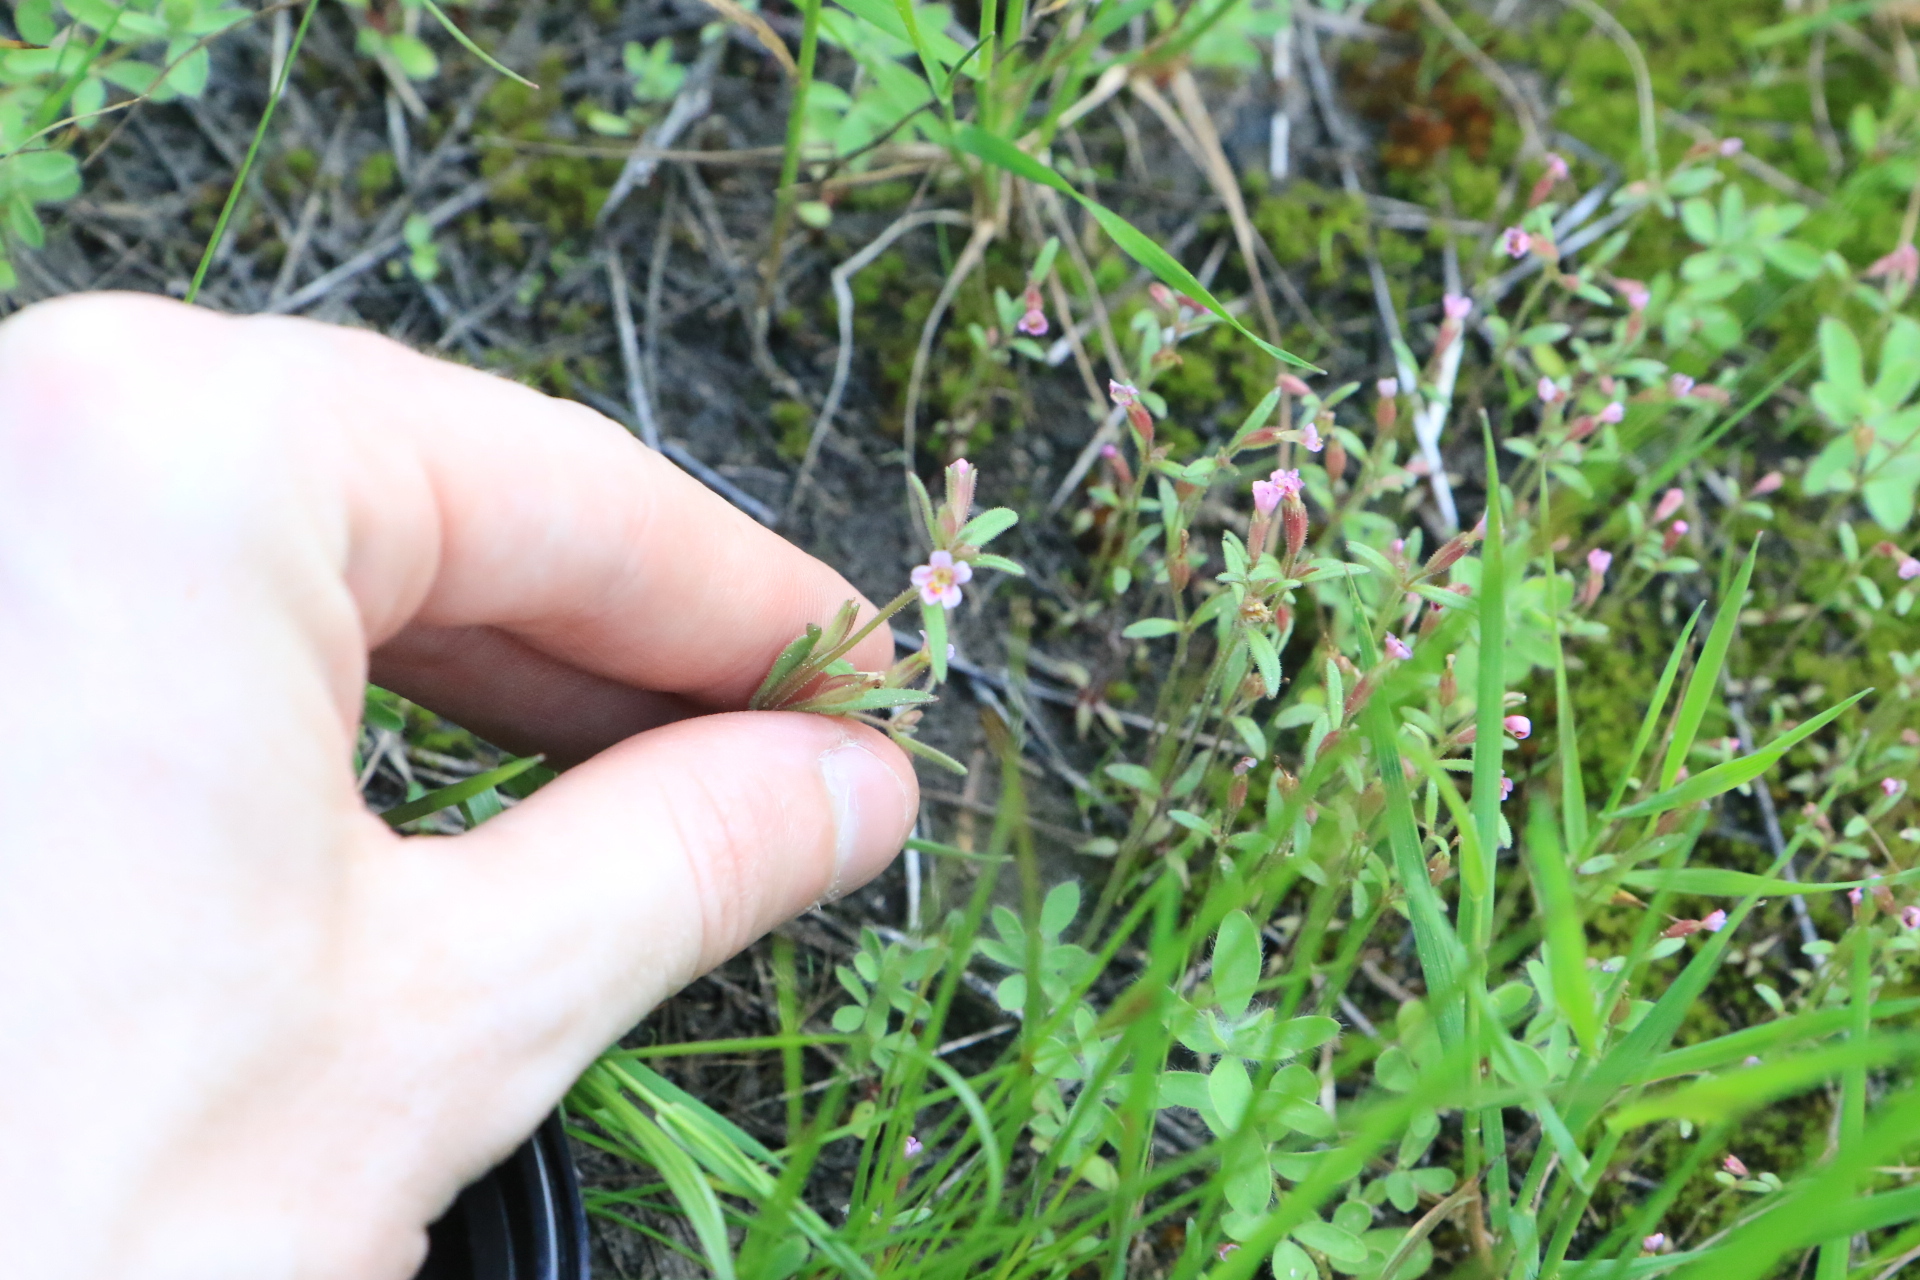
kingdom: Plantae
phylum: Tracheophyta
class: Magnoliopsida
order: Lamiales
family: Phrymaceae
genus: Erythranthe
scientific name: Erythranthe breweri
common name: Brewer's monkeyflower
